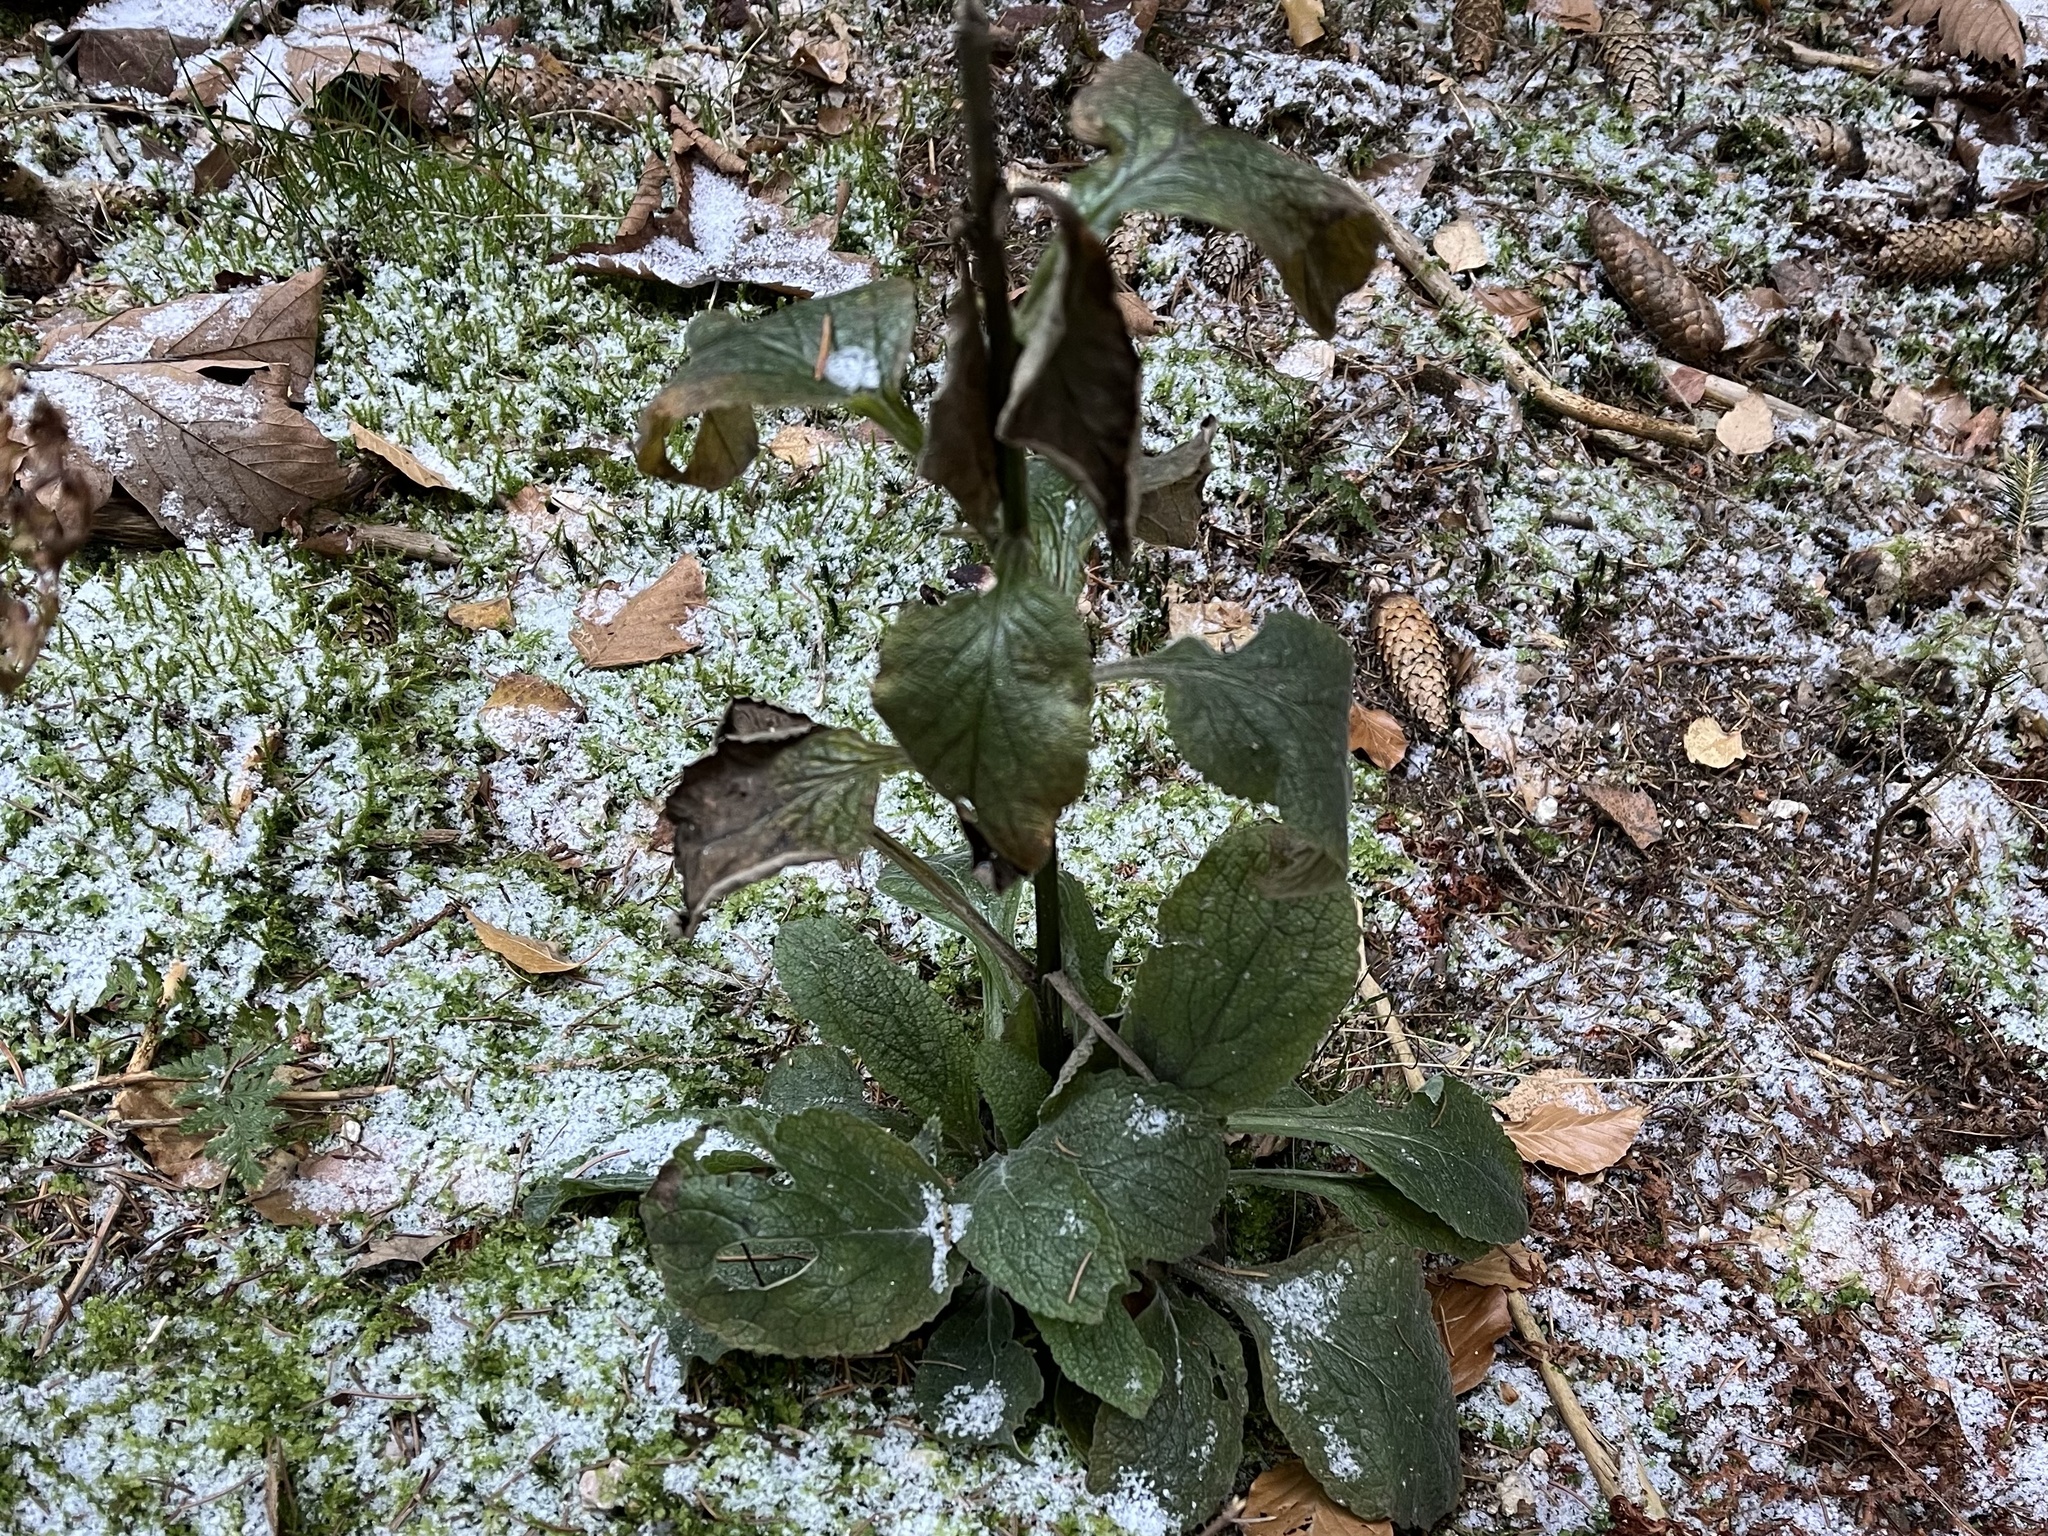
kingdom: Plantae
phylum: Tracheophyta
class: Magnoliopsida
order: Lamiales
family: Plantaginaceae
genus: Digitalis
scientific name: Digitalis purpurea
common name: Foxglove
